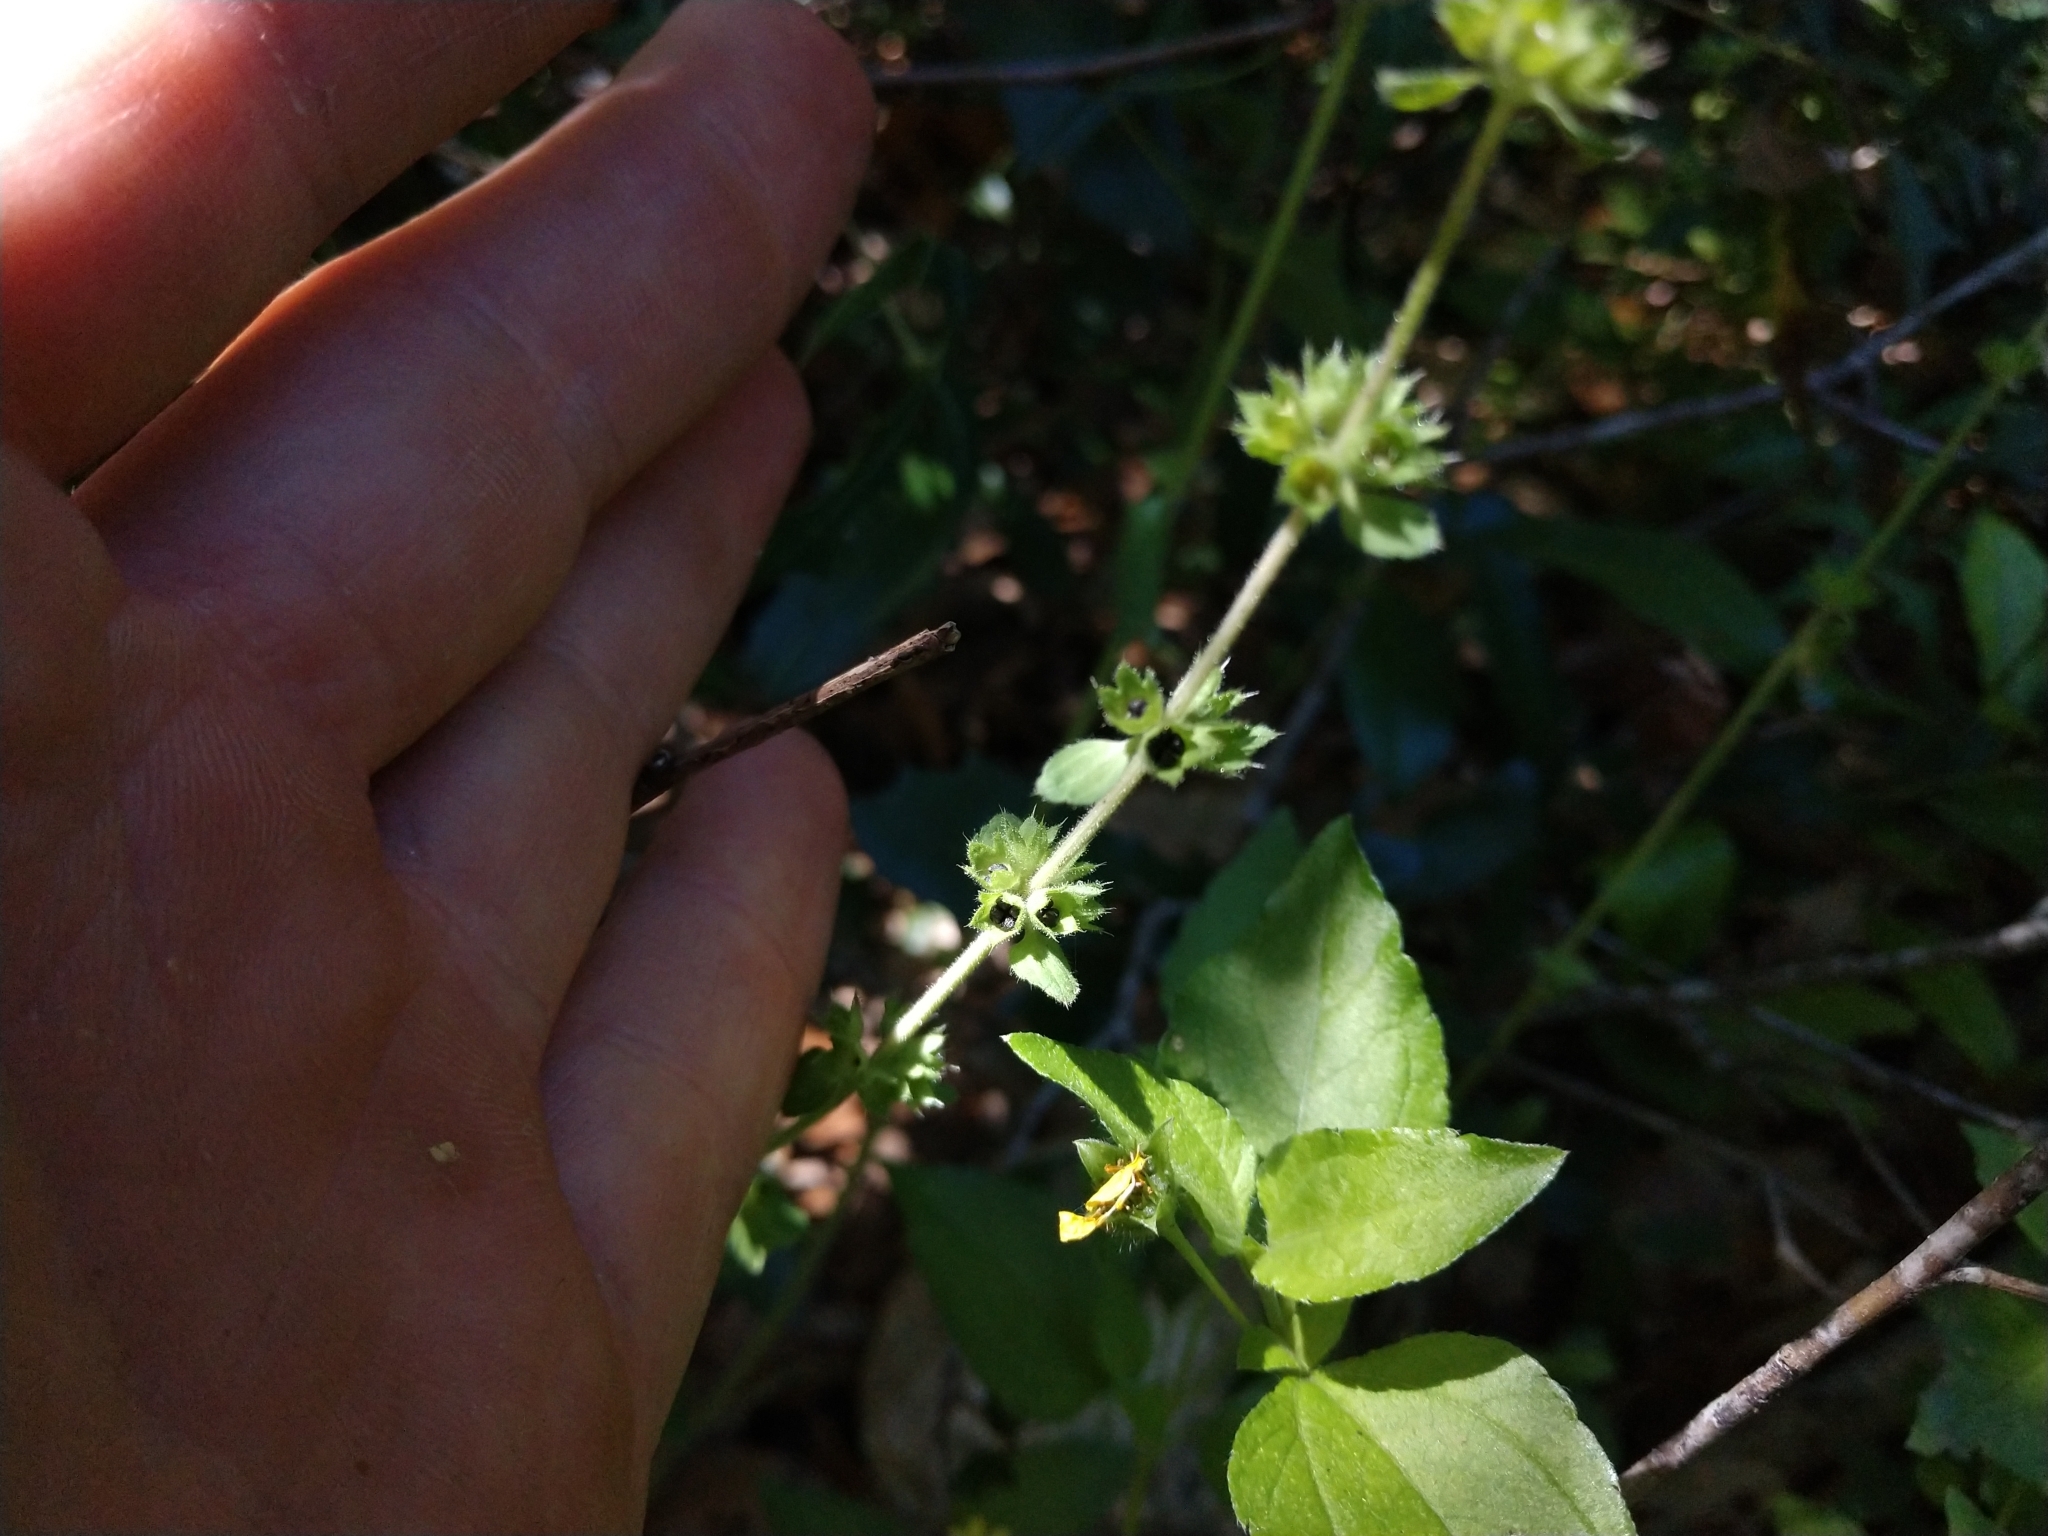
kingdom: Plantae
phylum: Tracheophyta
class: Magnoliopsida
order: Lamiales
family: Lamiaceae
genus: Stachys
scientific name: Stachys
